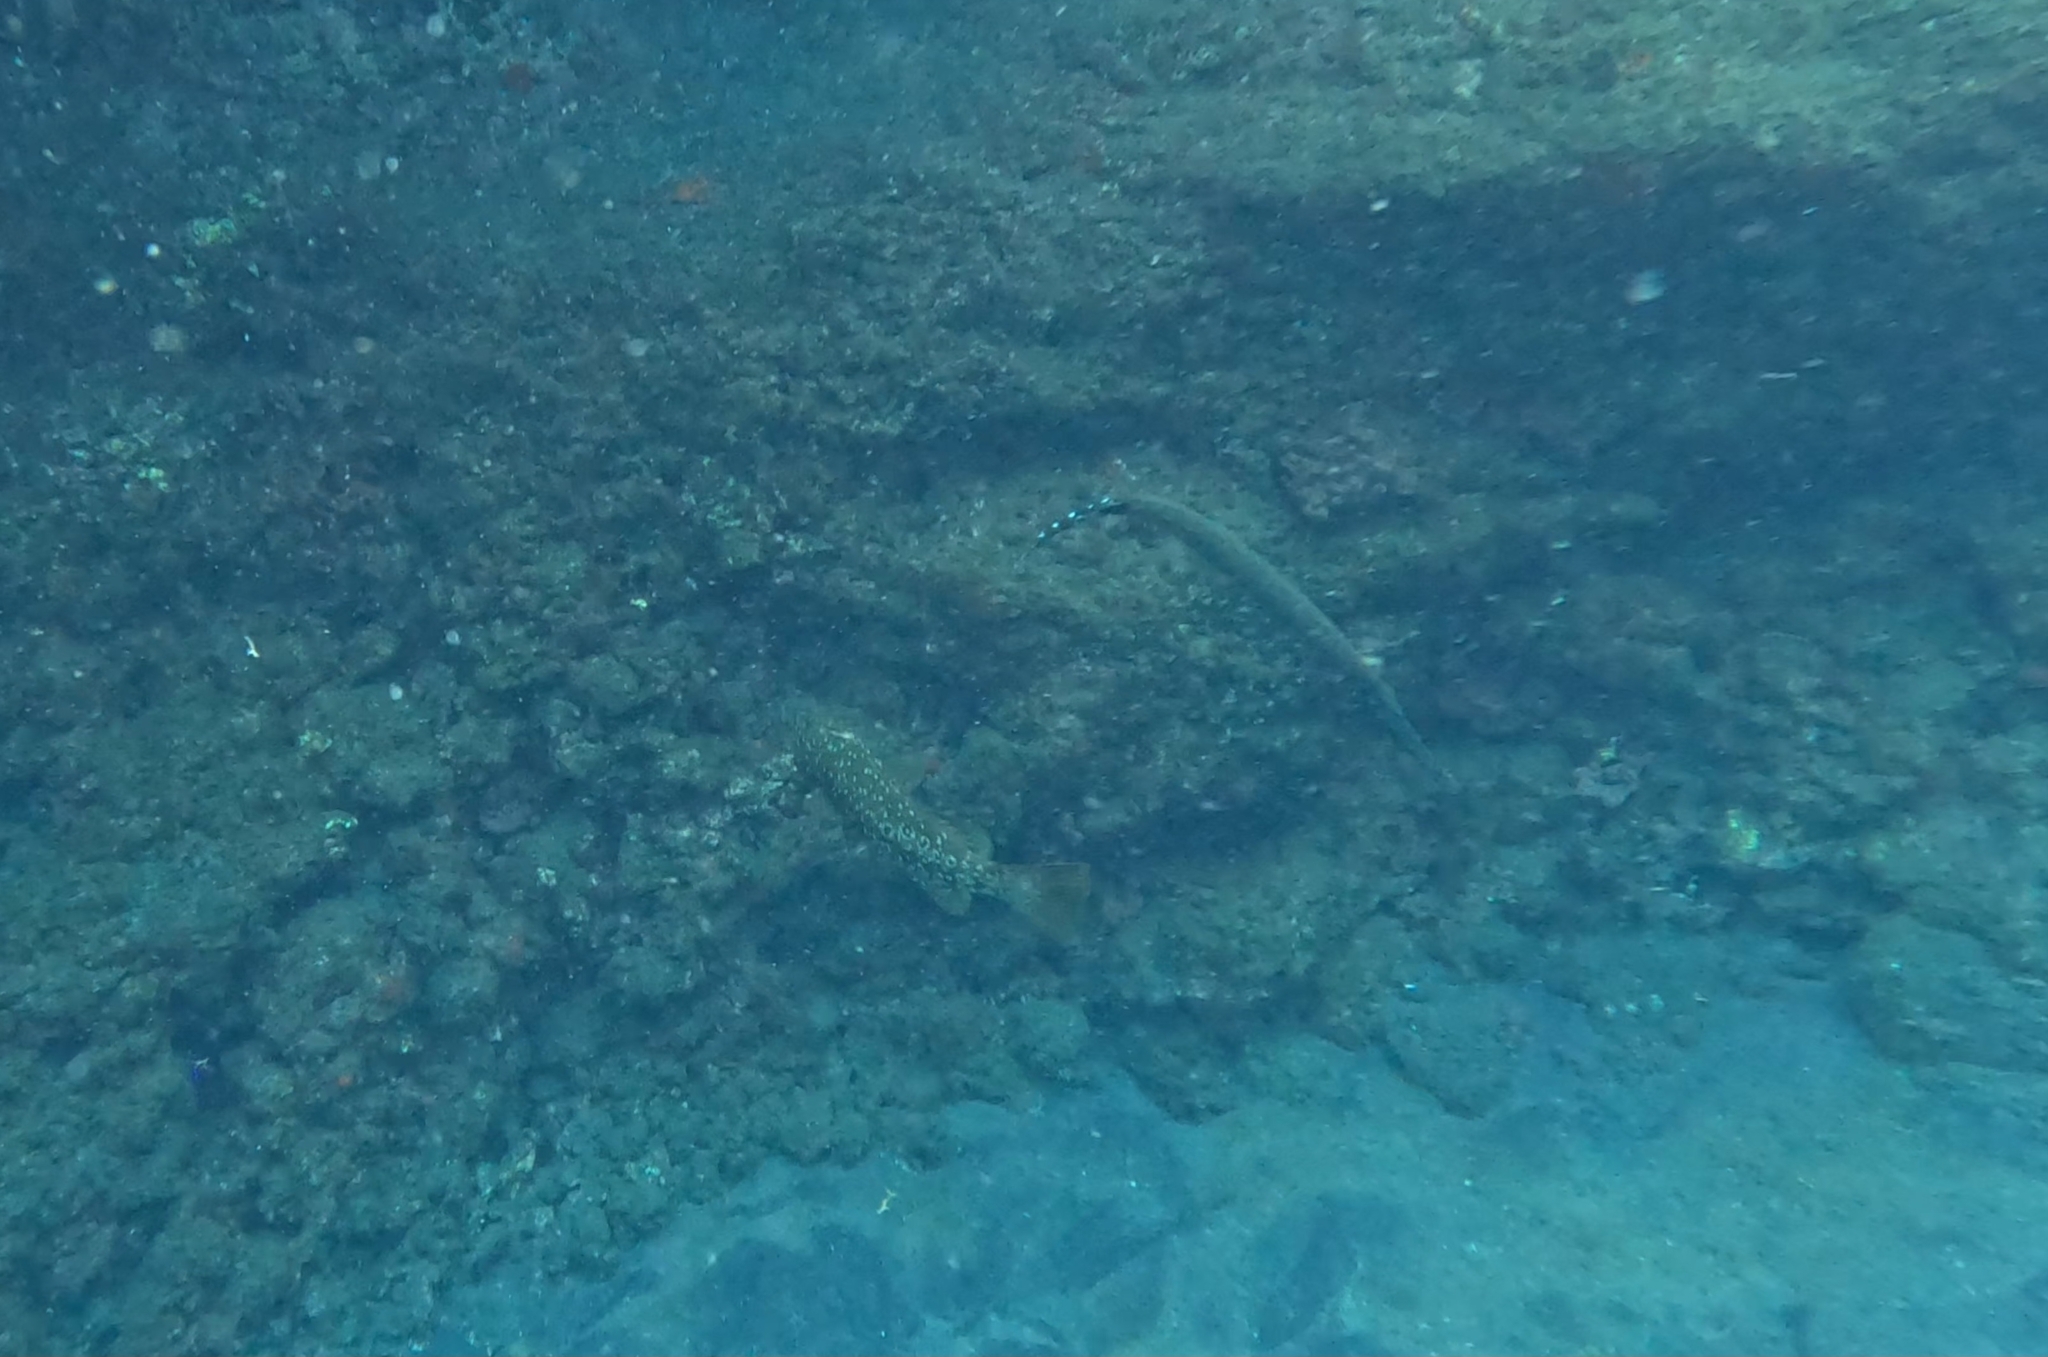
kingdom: Animalia
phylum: Chordata
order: Perciformes
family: Serranidae
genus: Mycteroperca
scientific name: Mycteroperca fusca
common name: Island grouper
